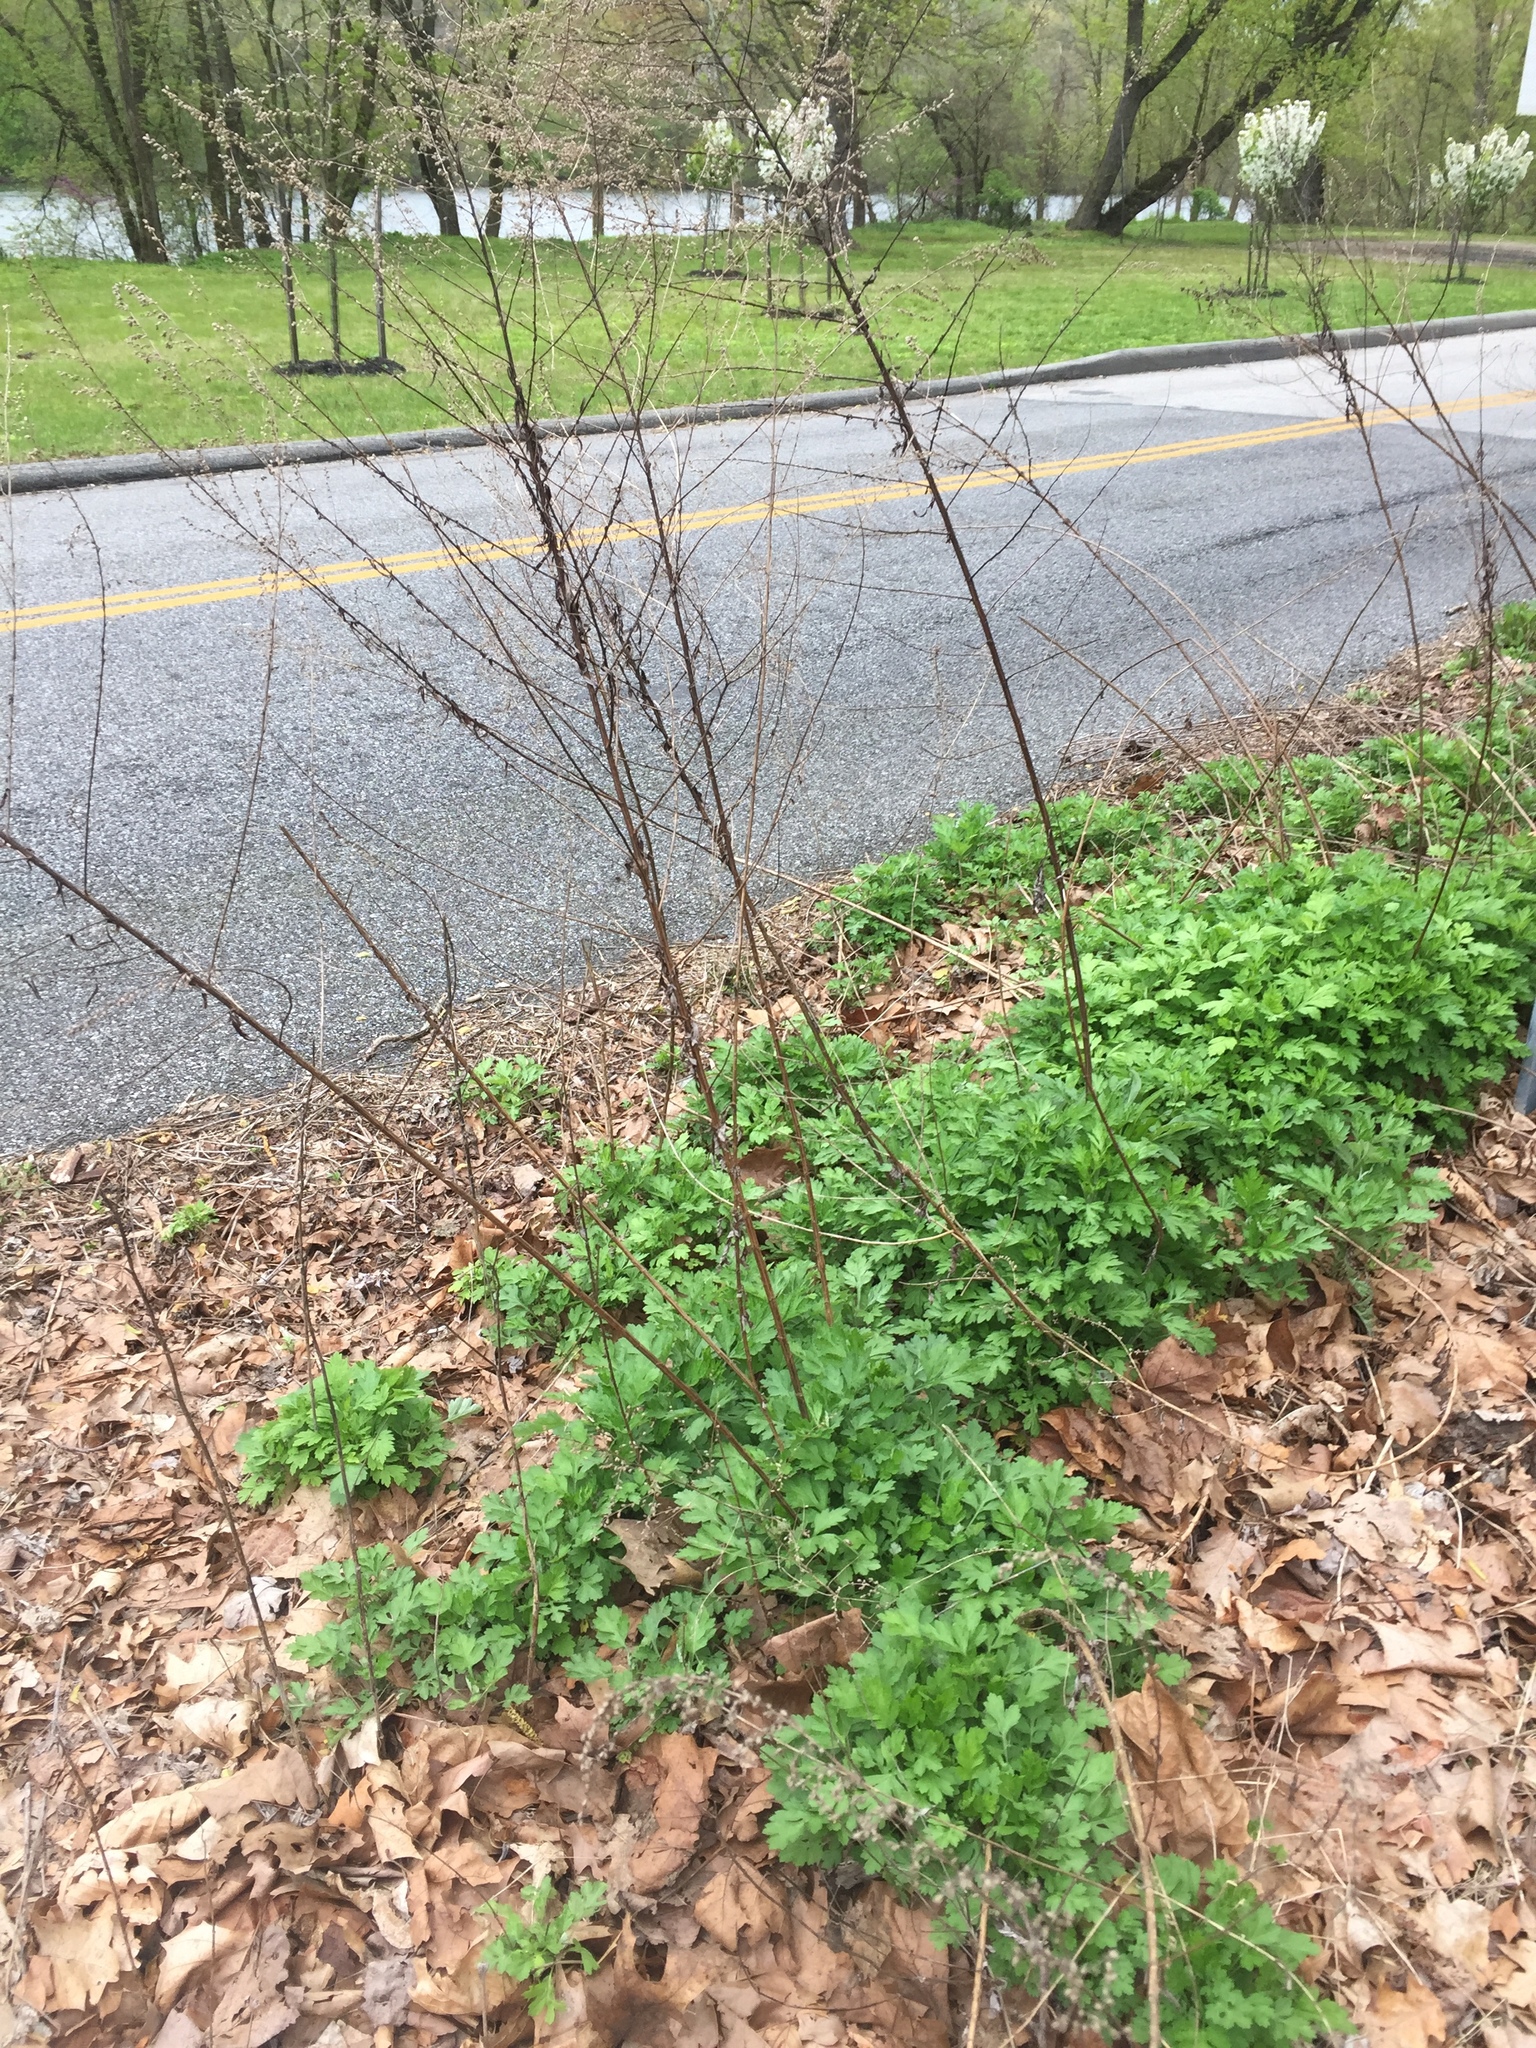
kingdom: Plantae
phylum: Tracheophyta
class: Magnoliopsida
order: Asterales
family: Asteraceae
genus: Artemisia
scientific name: Artemisia vulgaris
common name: Mugwort
